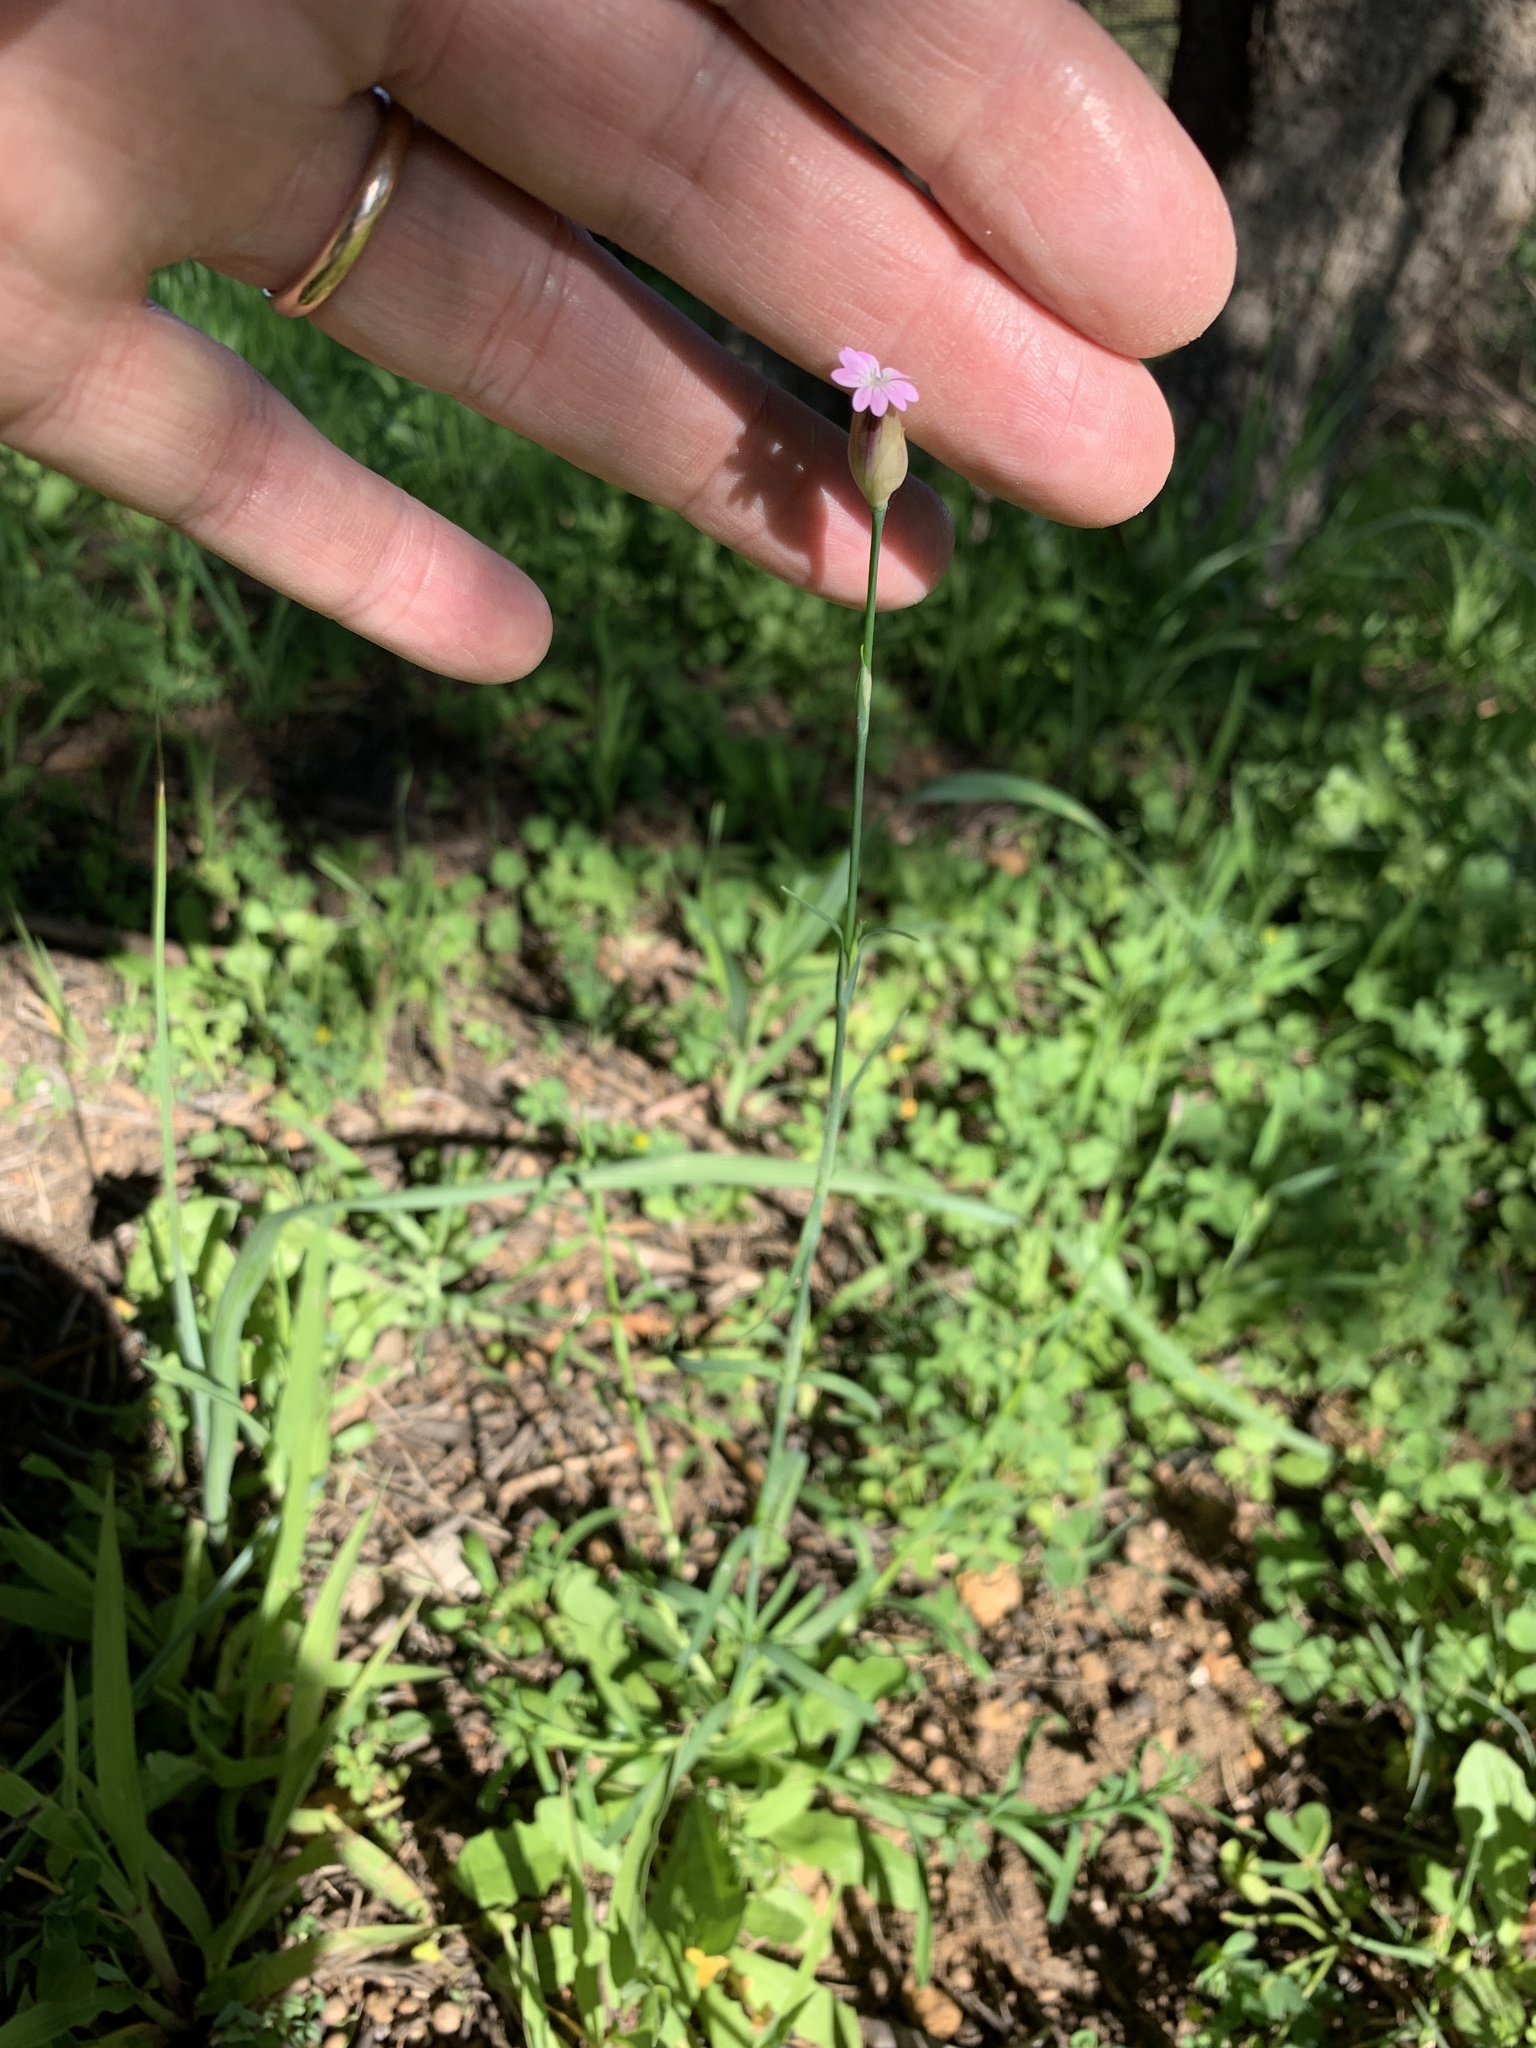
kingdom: Plantae
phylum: Tracheophyta
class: Magnoliopsida
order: Caryophyllales
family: Caryophyllaceae
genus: Petrorhagia
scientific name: Petrorhagia dubia
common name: Hairypink
